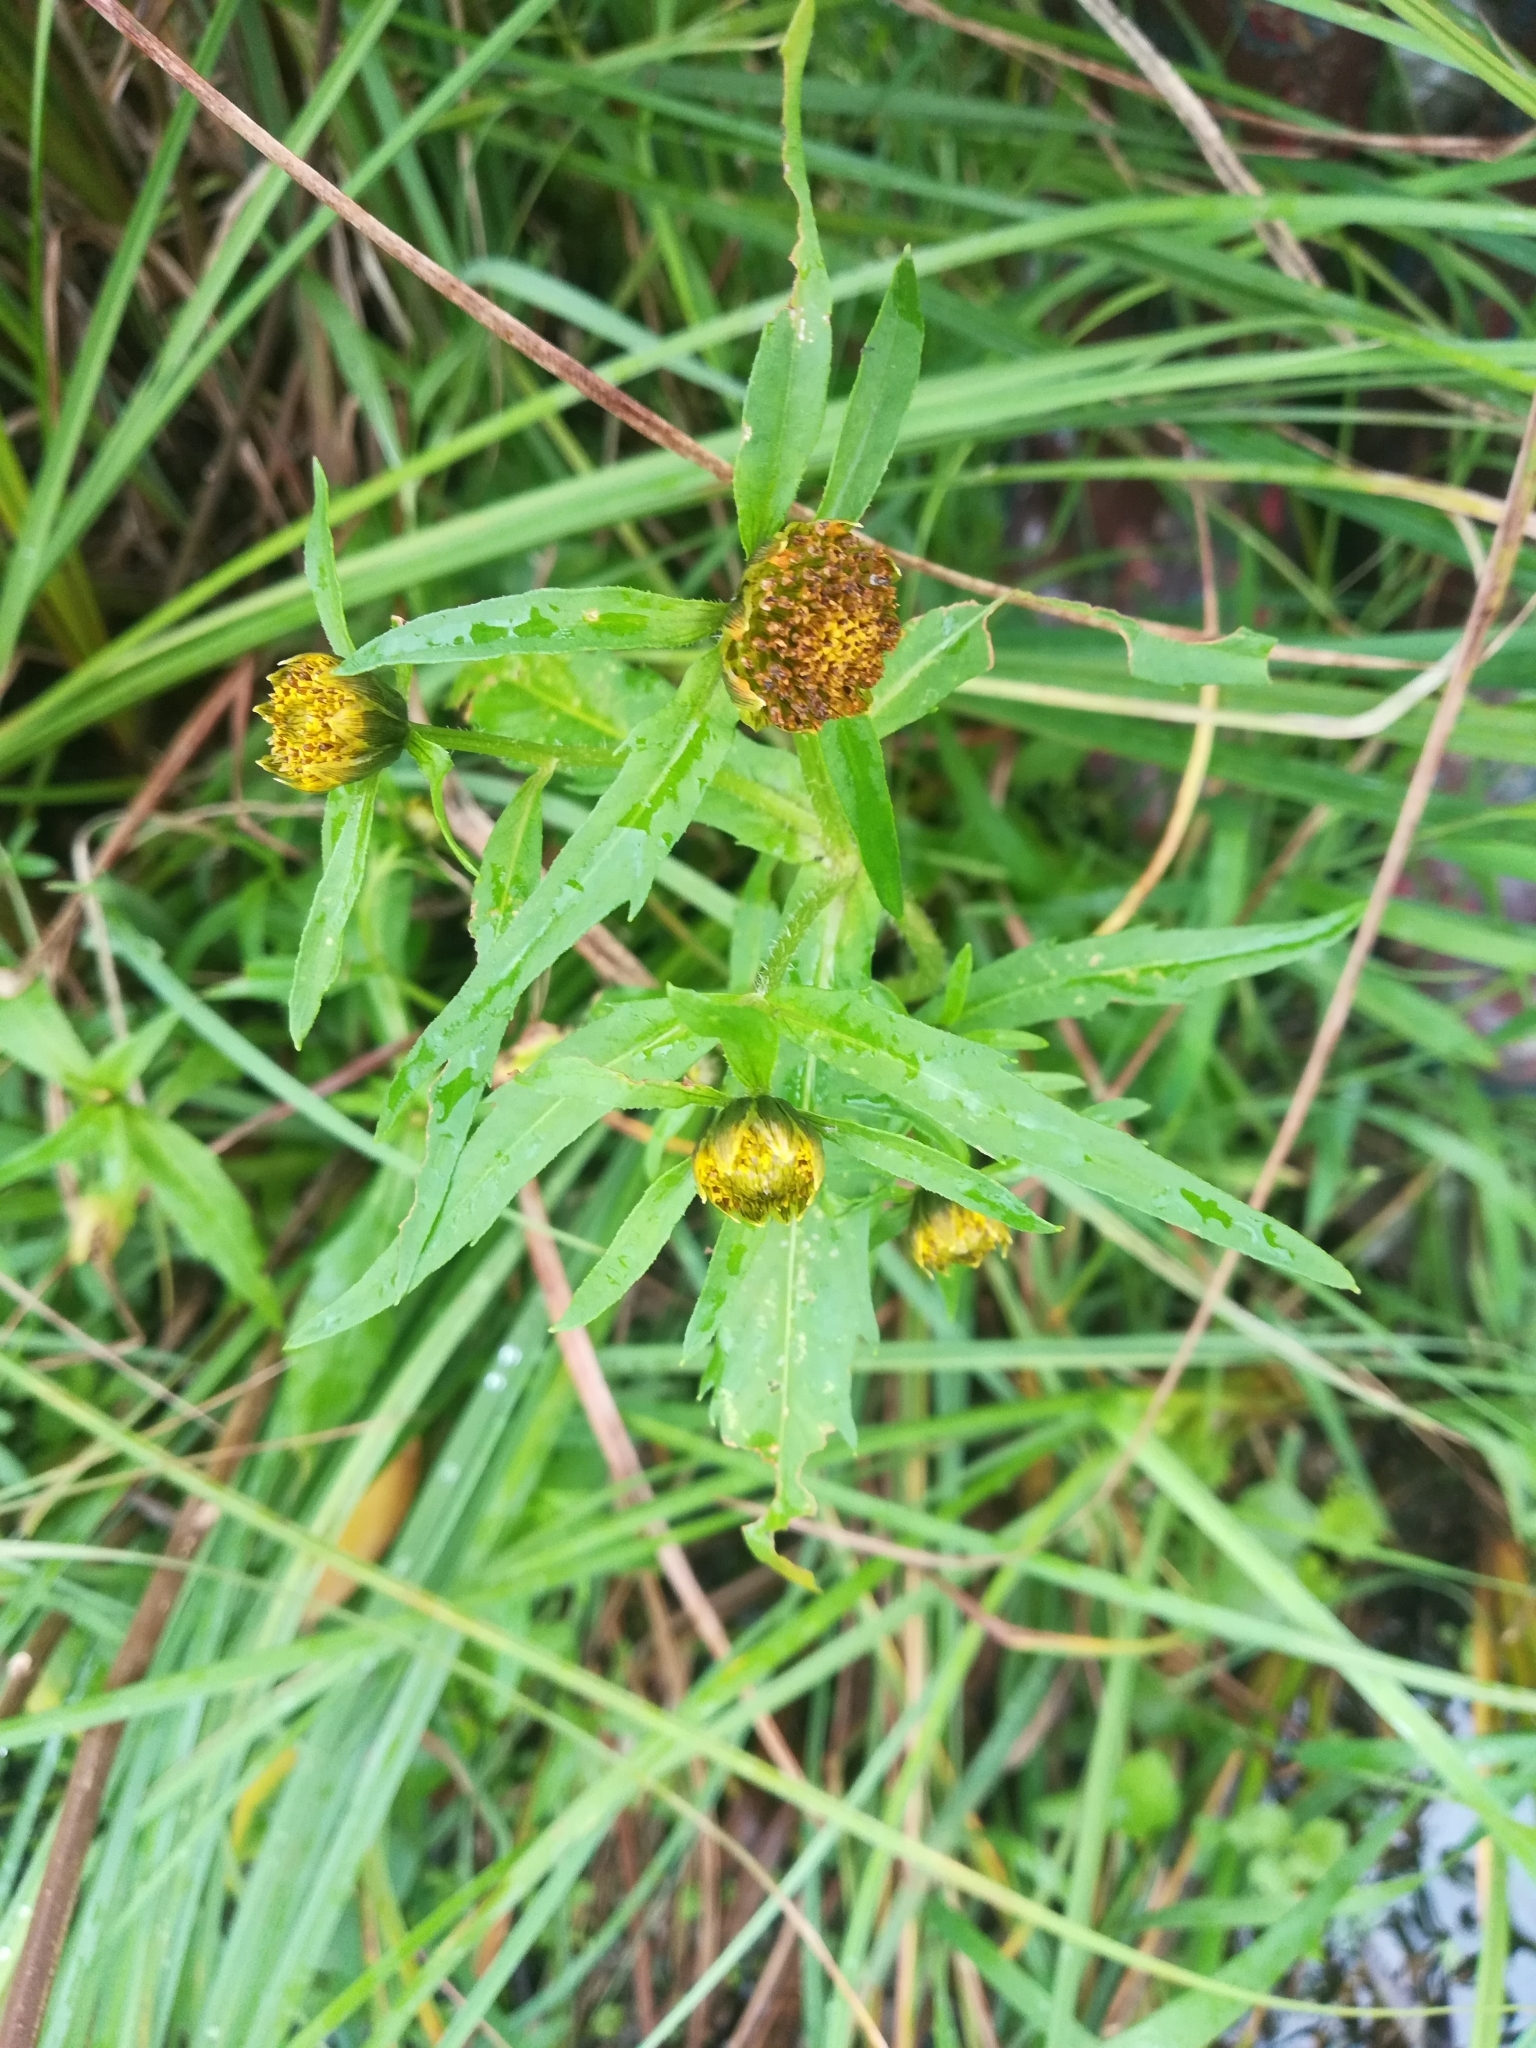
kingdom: Plantae
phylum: Tracheophyta
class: Magnoliopsida
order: Asterales
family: Asteraceae
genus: Bidens
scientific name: Bidens cernua
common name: Nodding bur-marigold
